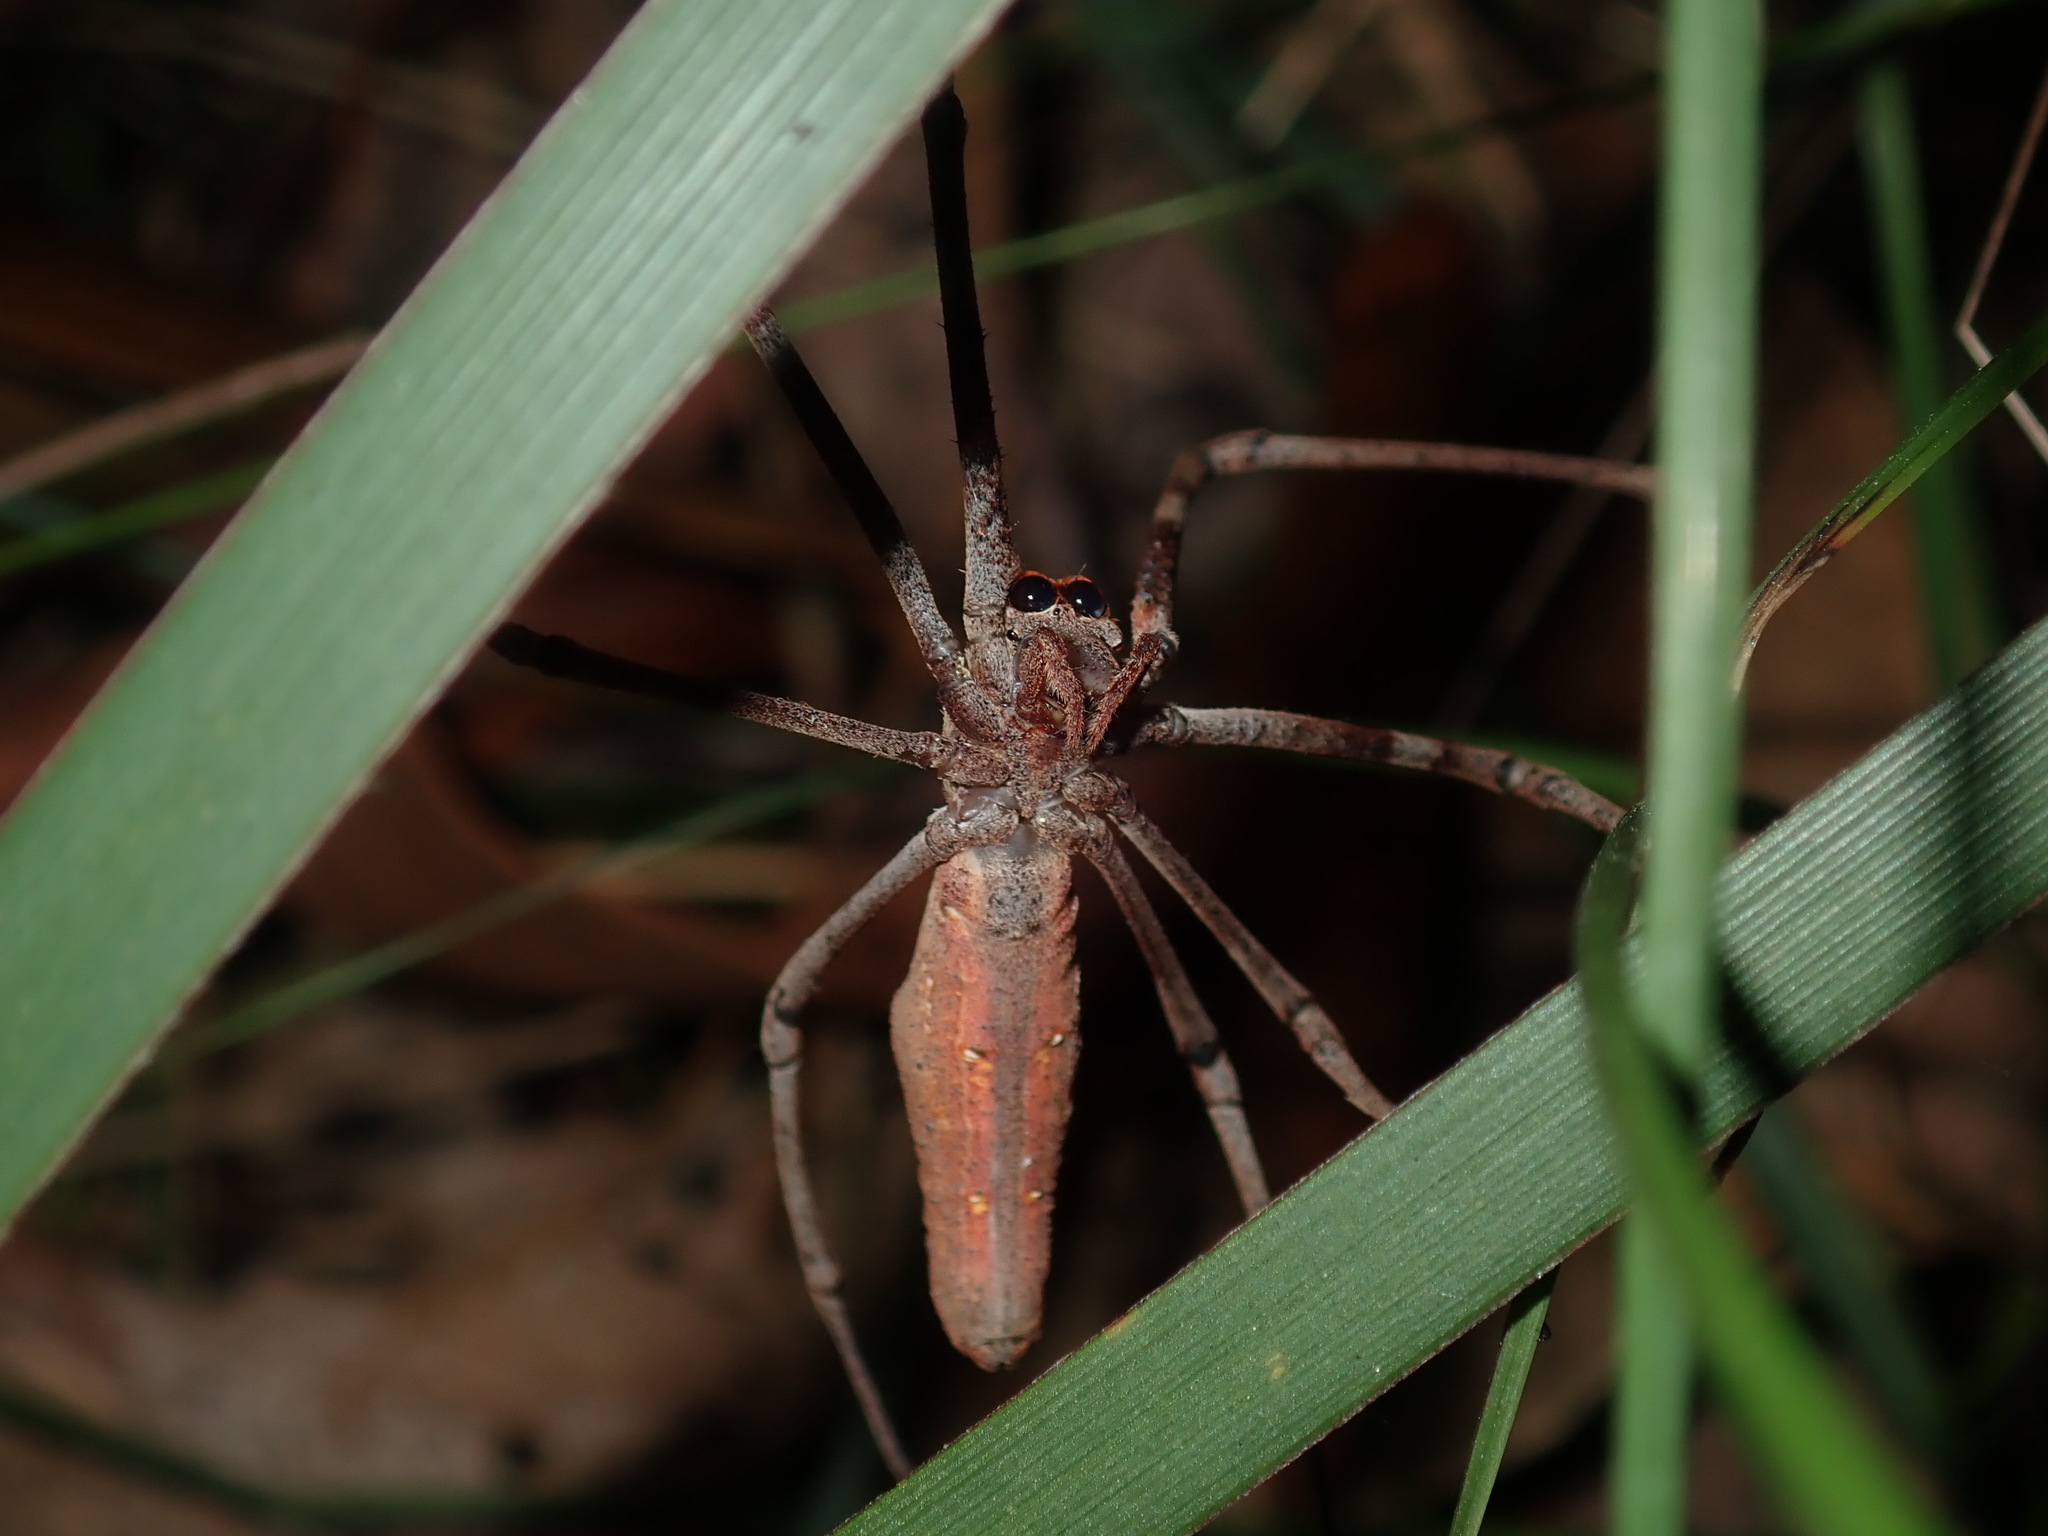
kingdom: Animalia
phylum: Arthropoda
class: Arachnida
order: Araneae
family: Deinopidae
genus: Deinopis
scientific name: Deinopis subrufa
